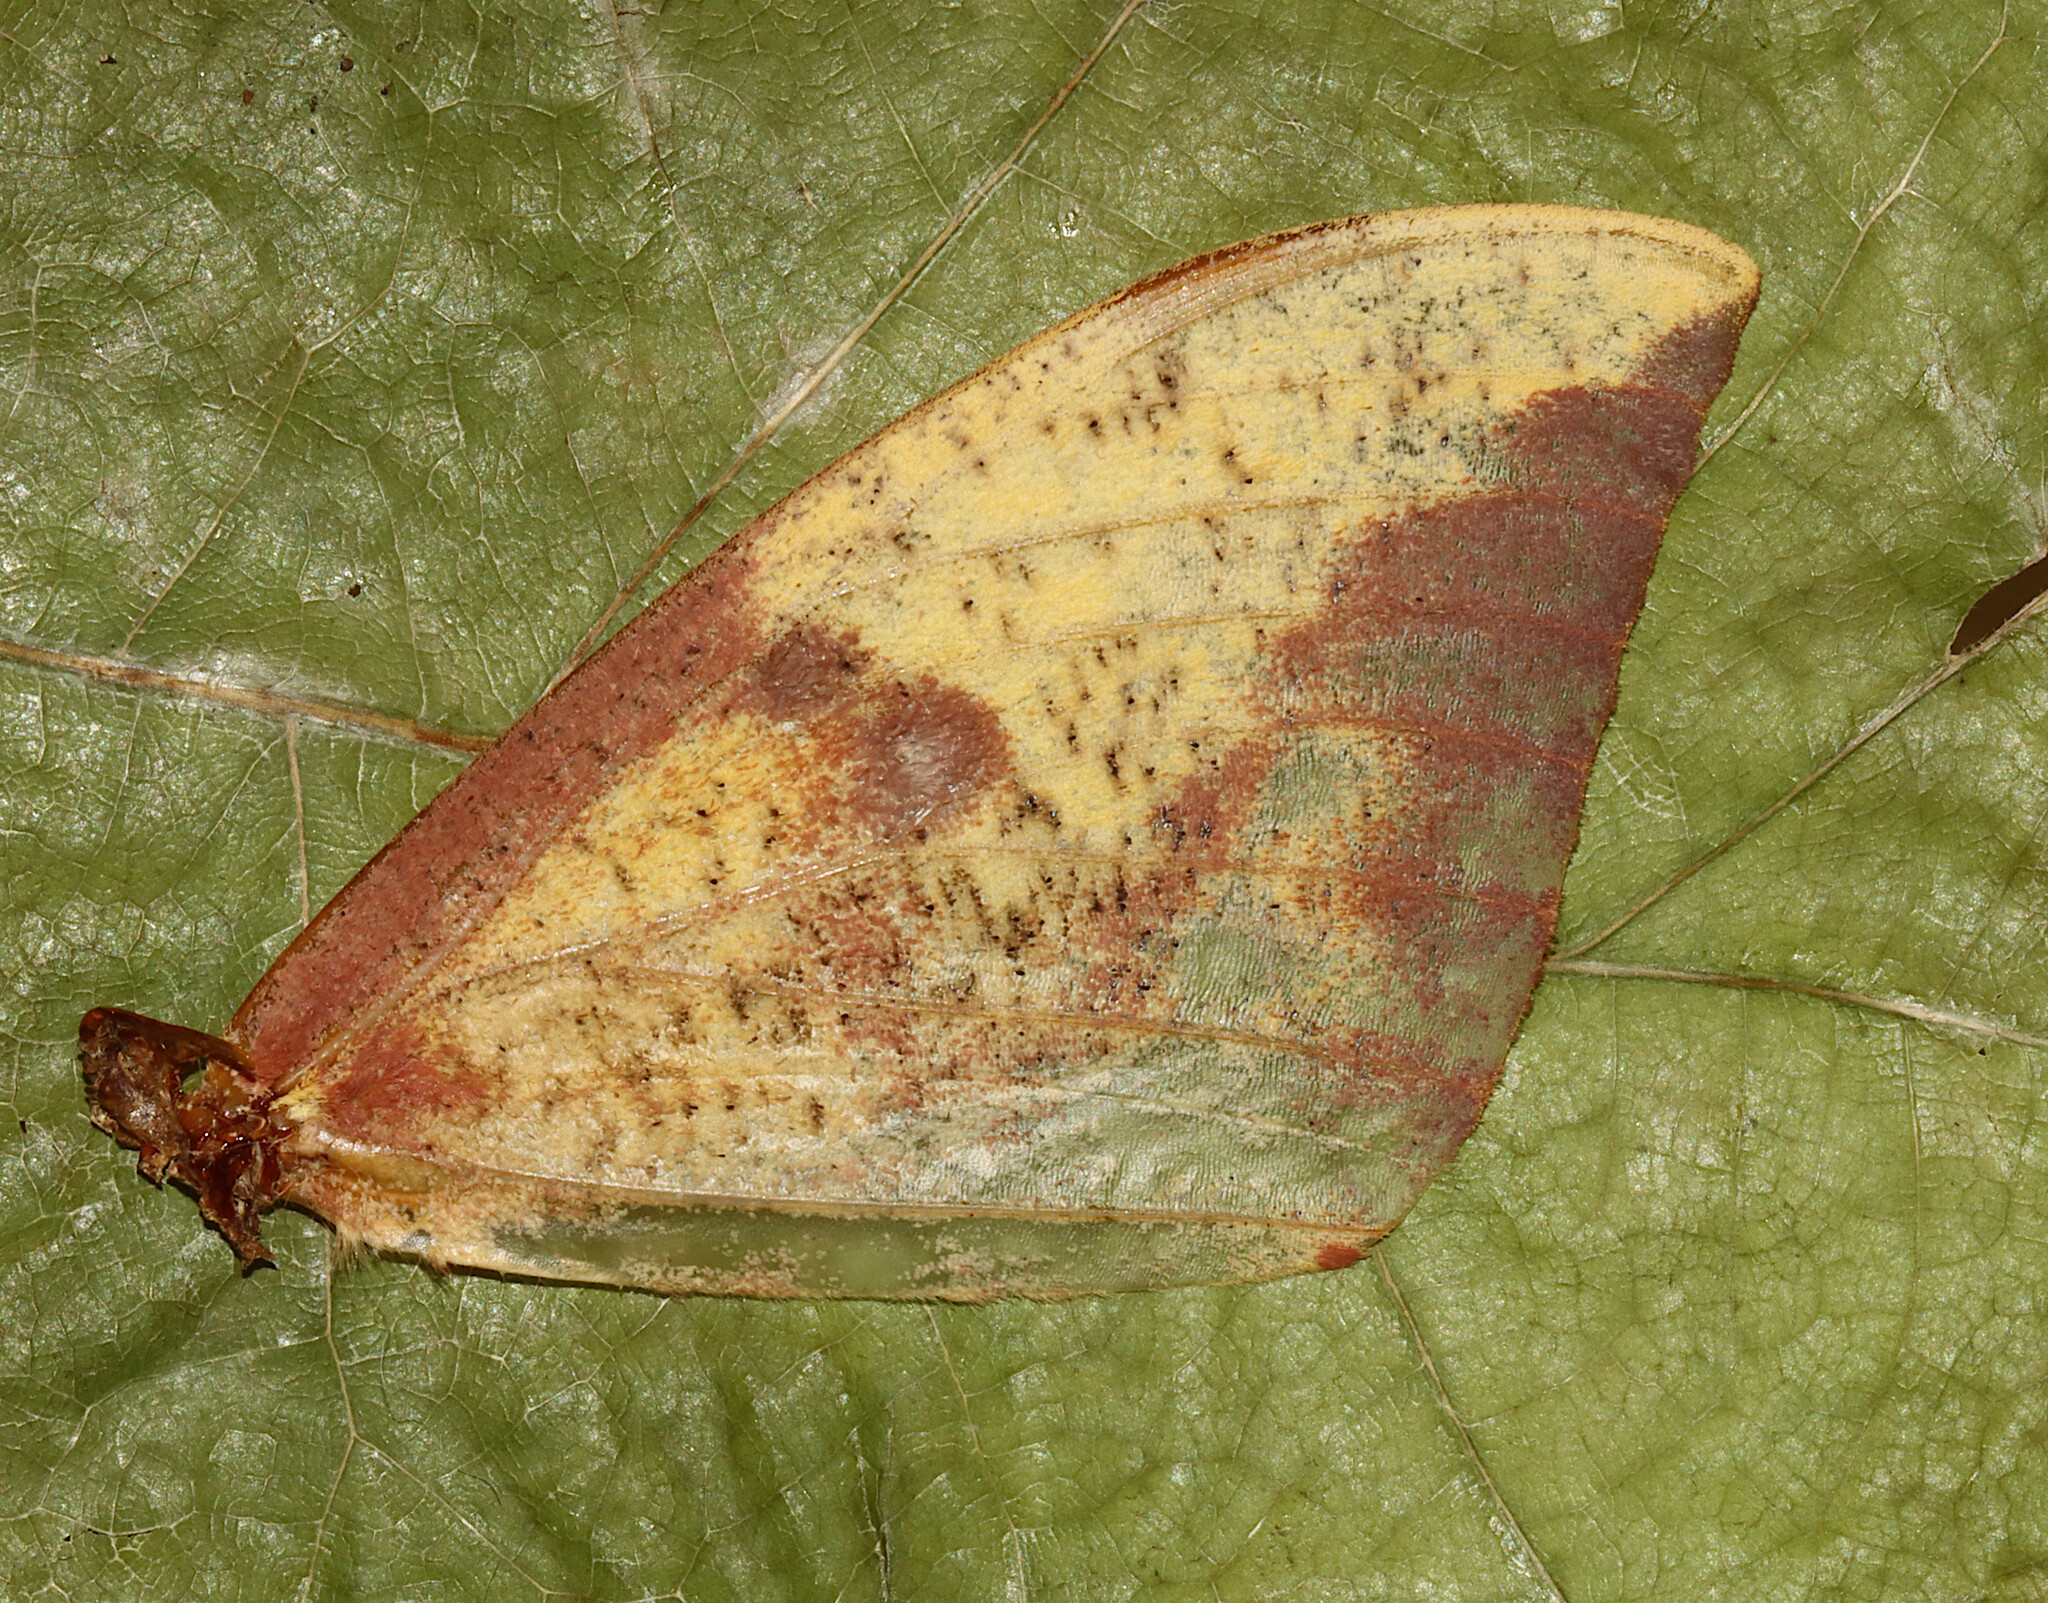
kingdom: Animalia
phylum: Arthropoda
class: Insecta
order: Lepidoptera
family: Saturniidae
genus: Eacles
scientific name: Eacles imperialis
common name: Imperial moth
